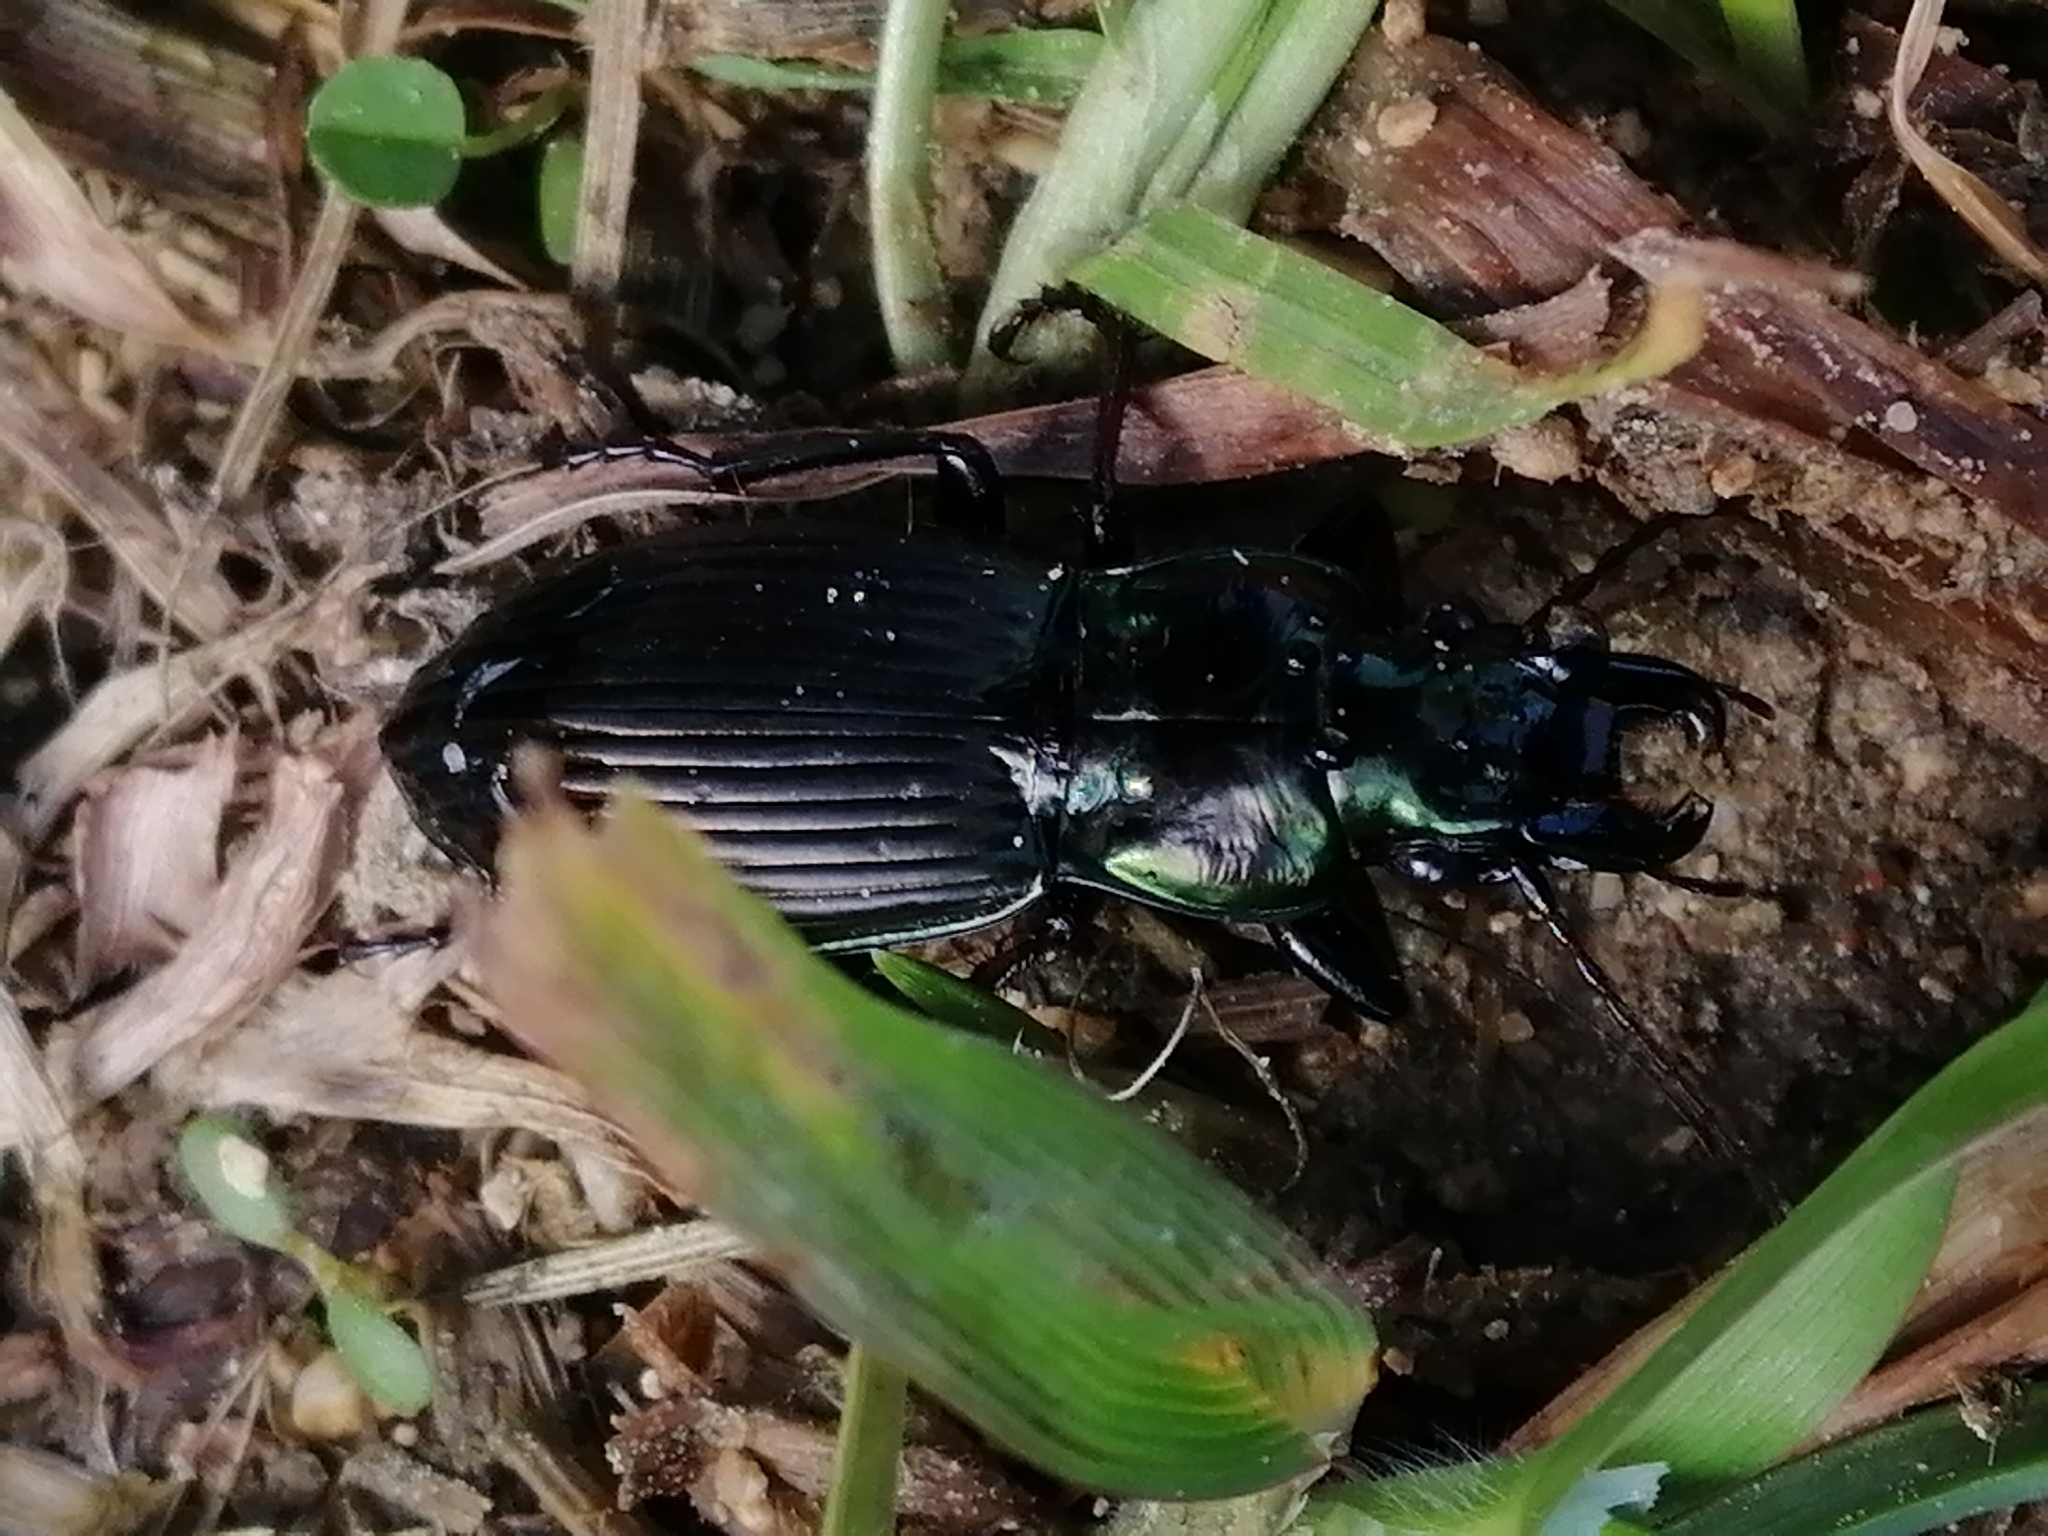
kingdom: Animalia
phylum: Arthropoda
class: Insecta
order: Coleoptera
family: Carabidae
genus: Megadromus
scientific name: Megadromus capito
